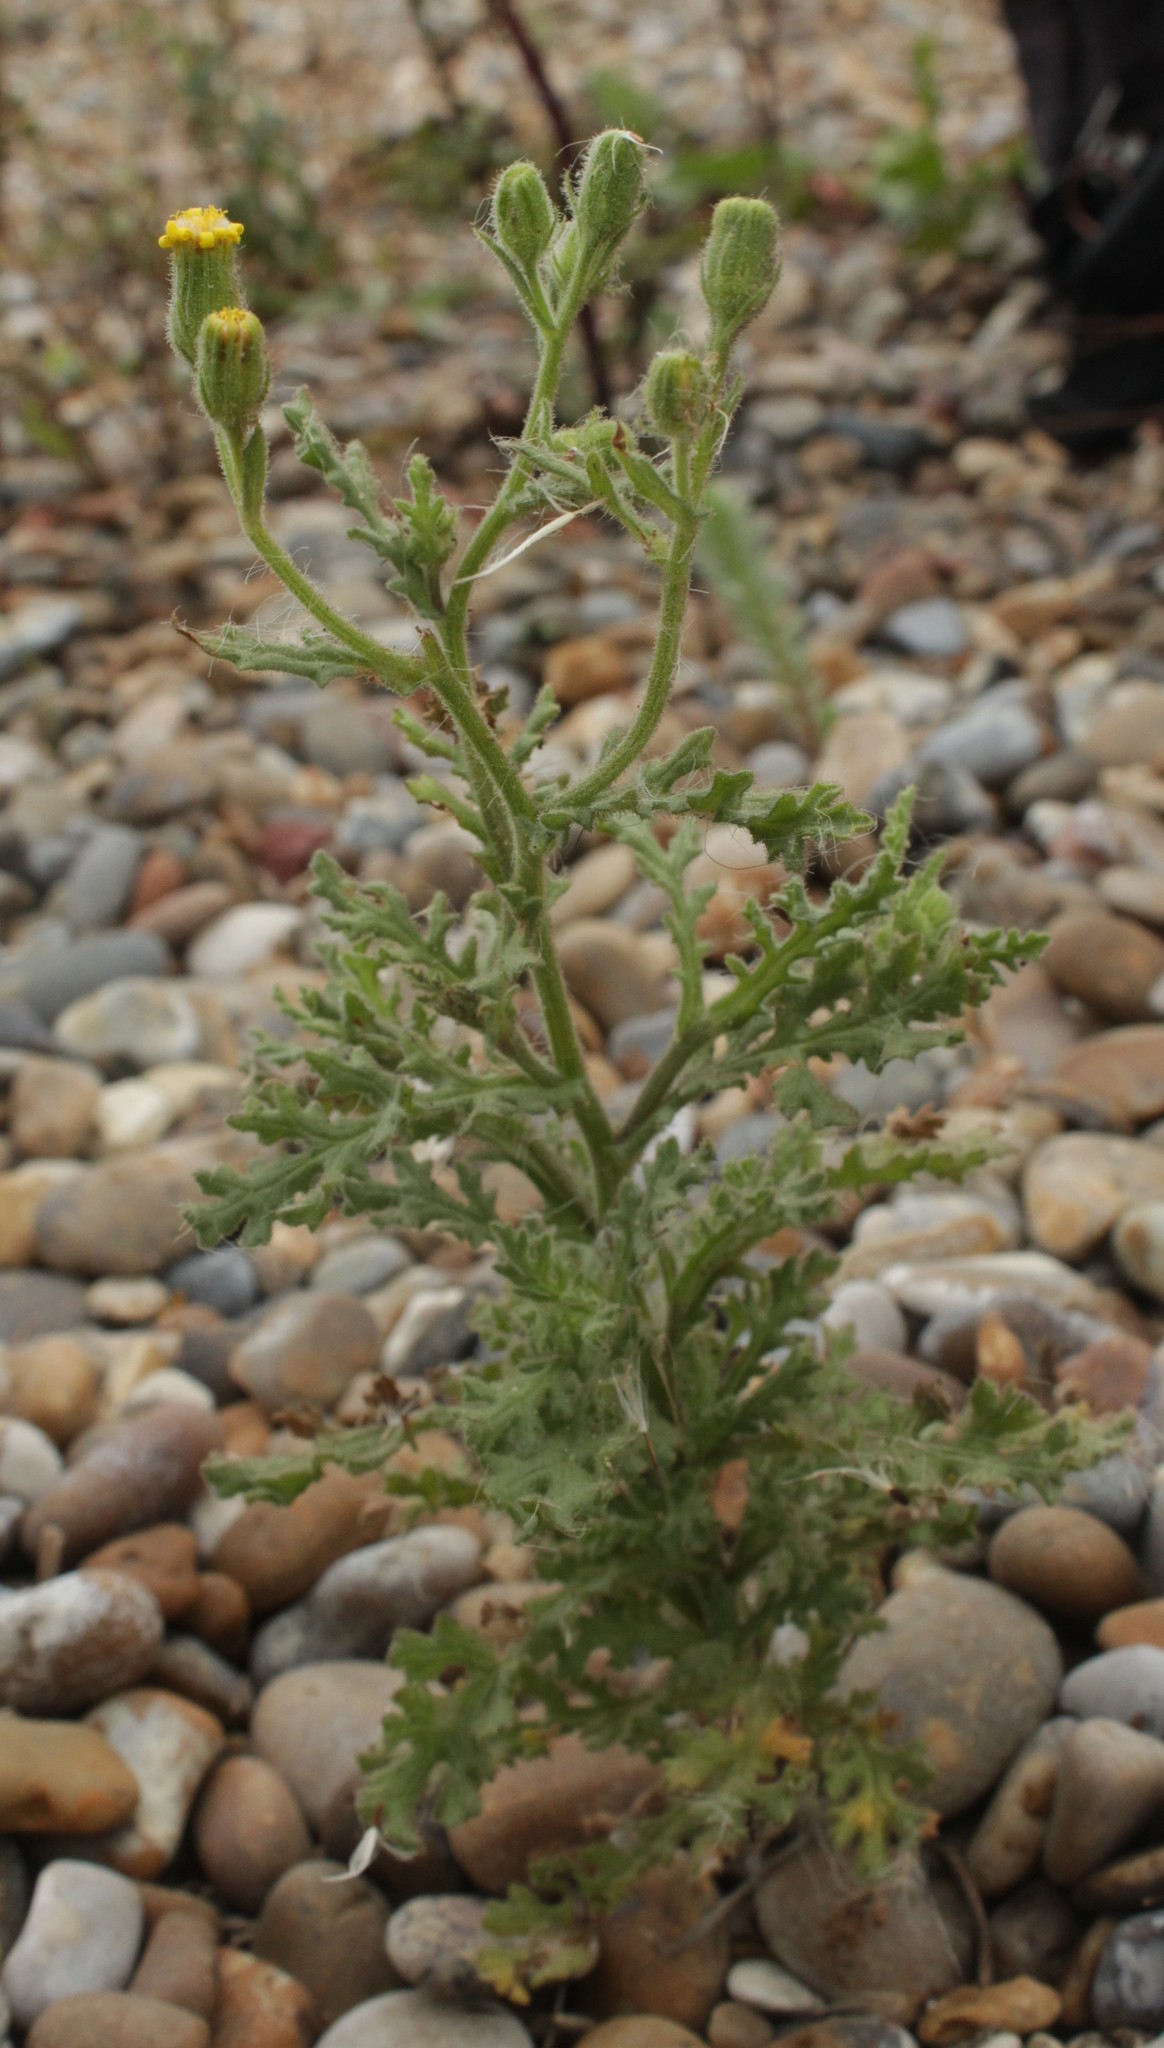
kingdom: Plantae
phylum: Tracheophyta
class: Magnoliopsida
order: Asterales
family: Asteraceae
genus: Senecio
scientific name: Senecio viscosus
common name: Sticky groundsel
